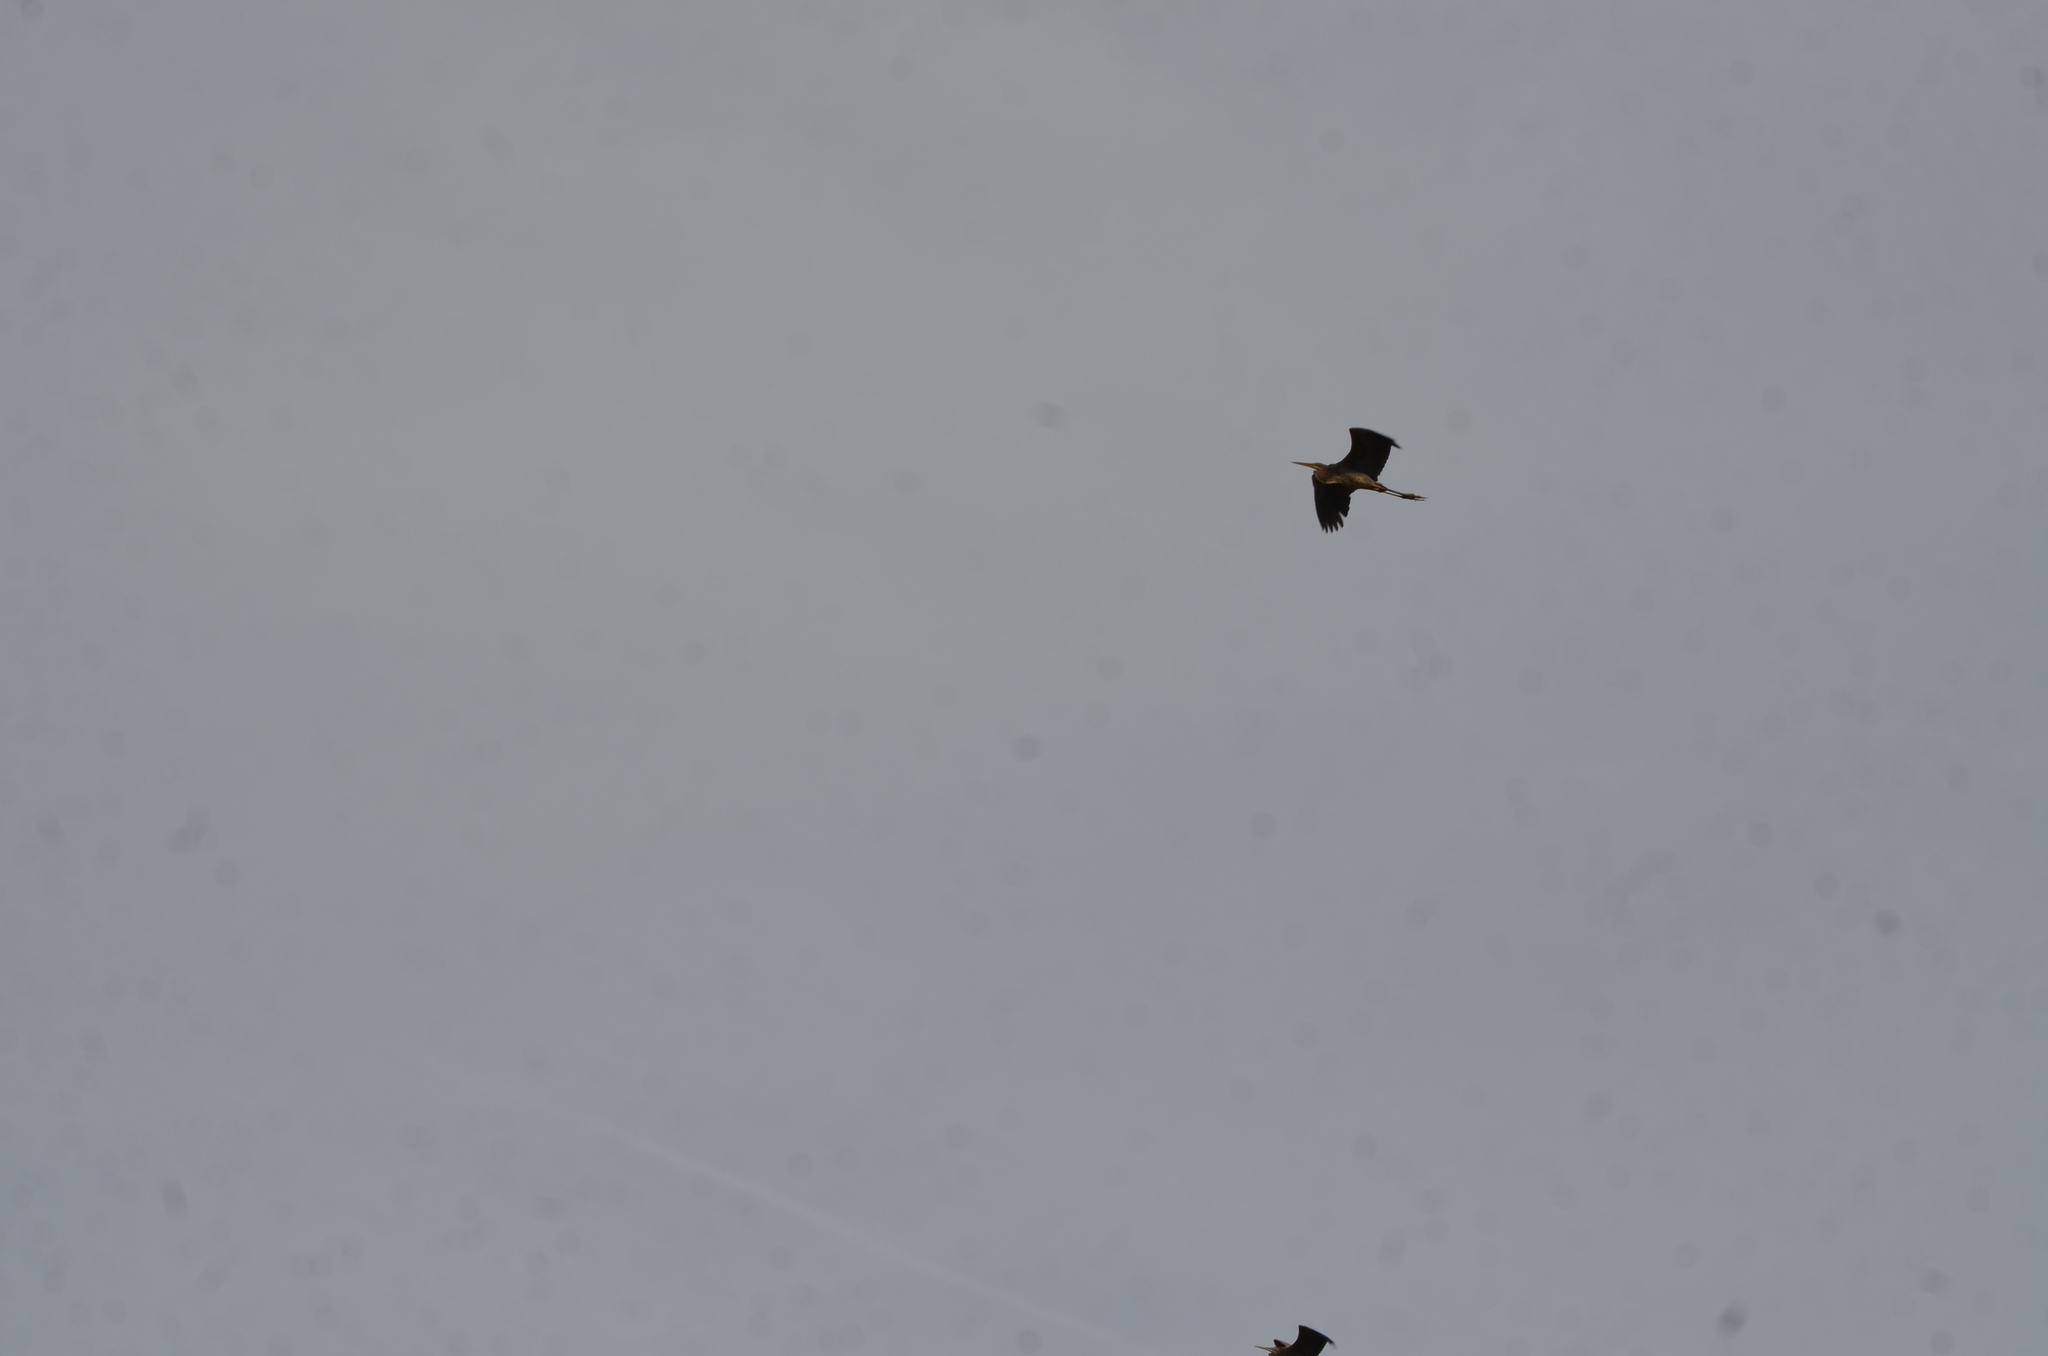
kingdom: Animalia
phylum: Chordata
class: Aves
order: Pelecaniformes
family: Ardeidae
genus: Ardea
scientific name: Ardea purpurea
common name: Purple heron
